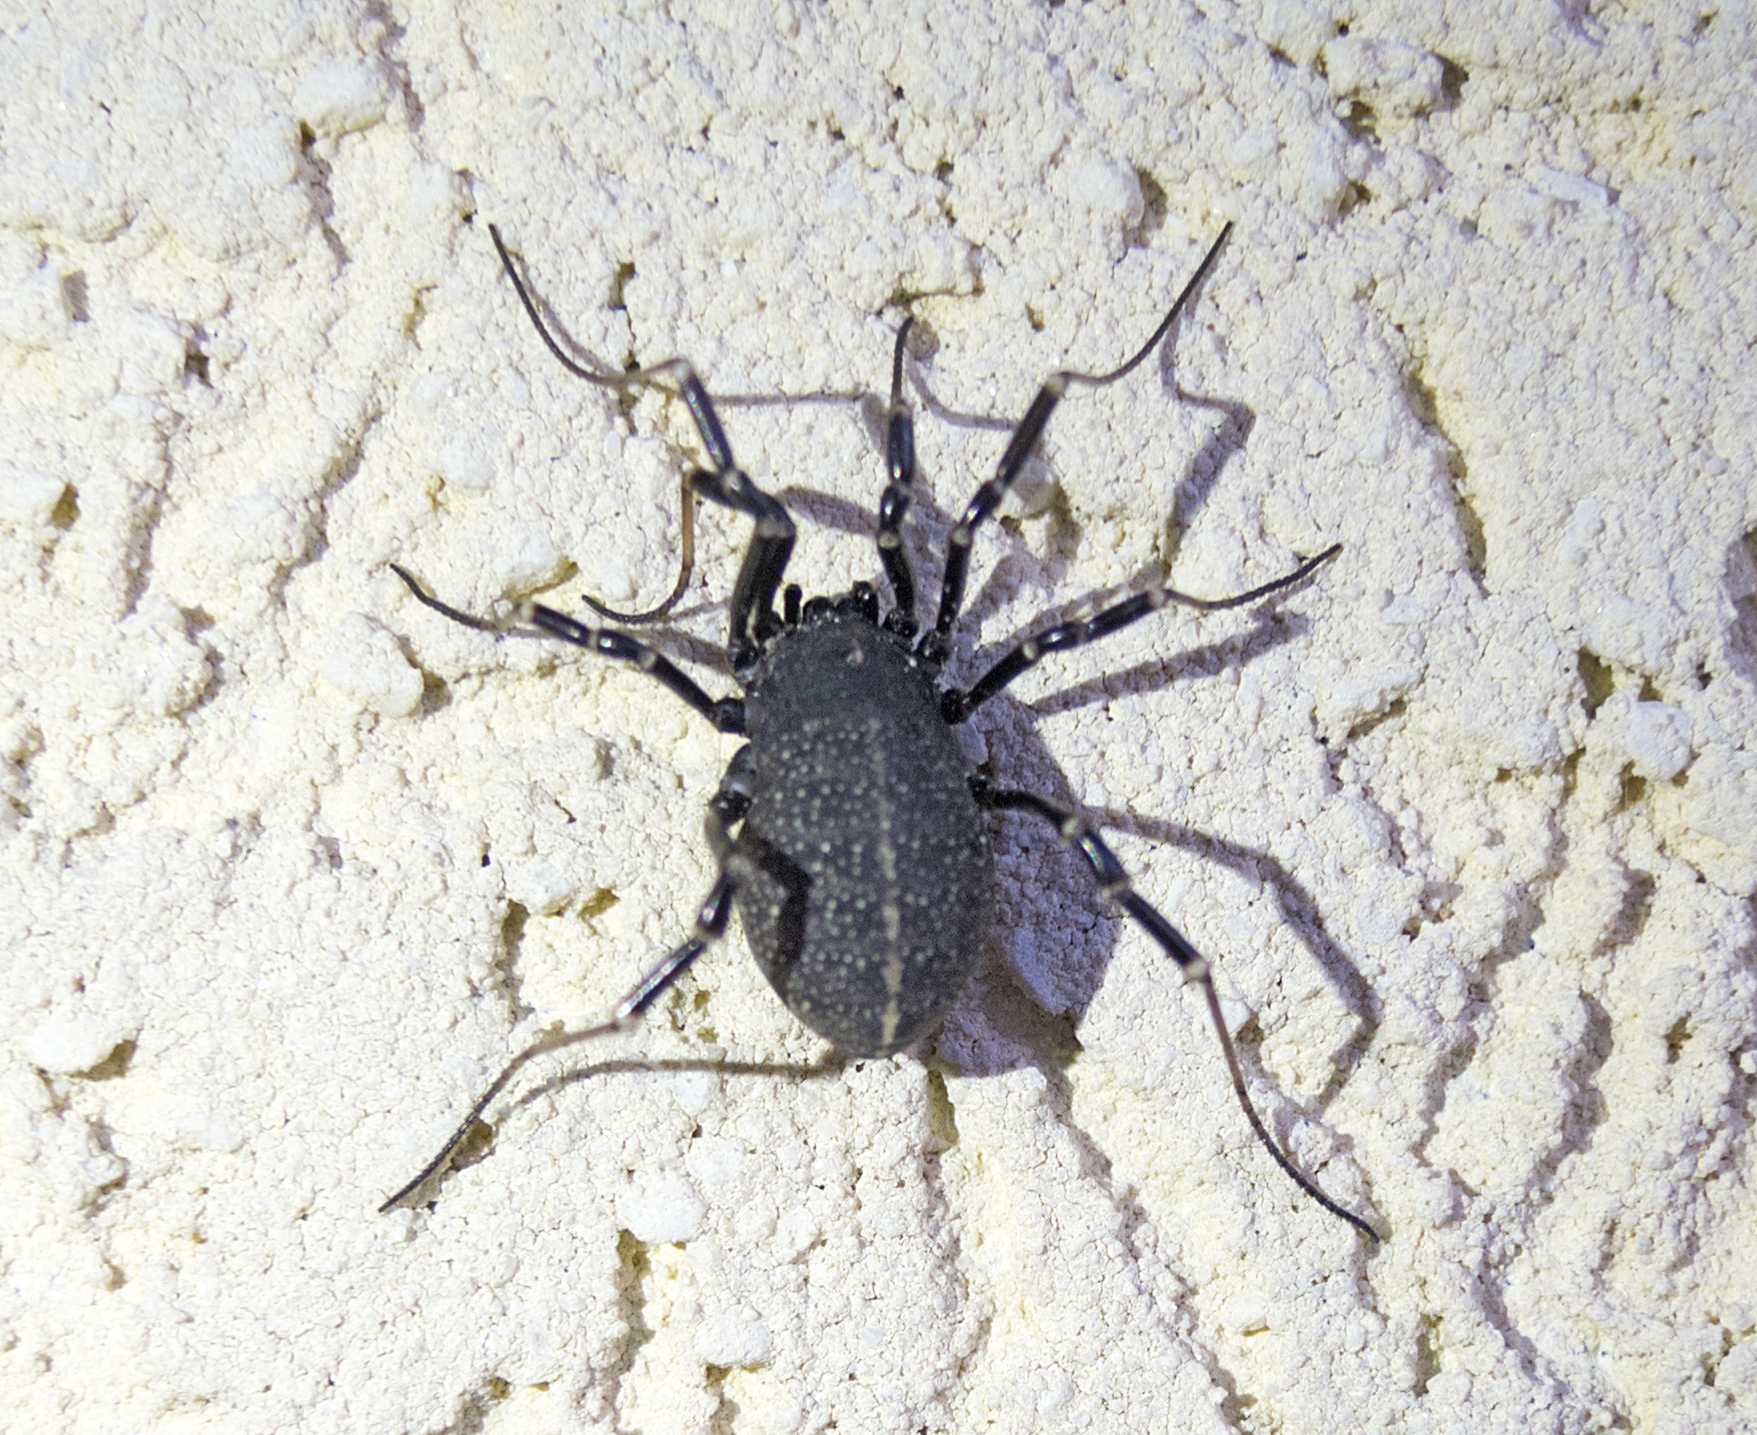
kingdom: Animalia
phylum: Arthropoda
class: Arachnida
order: Opiliones
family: Phalangiidae
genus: Egaenus
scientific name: Egaenus convexus
